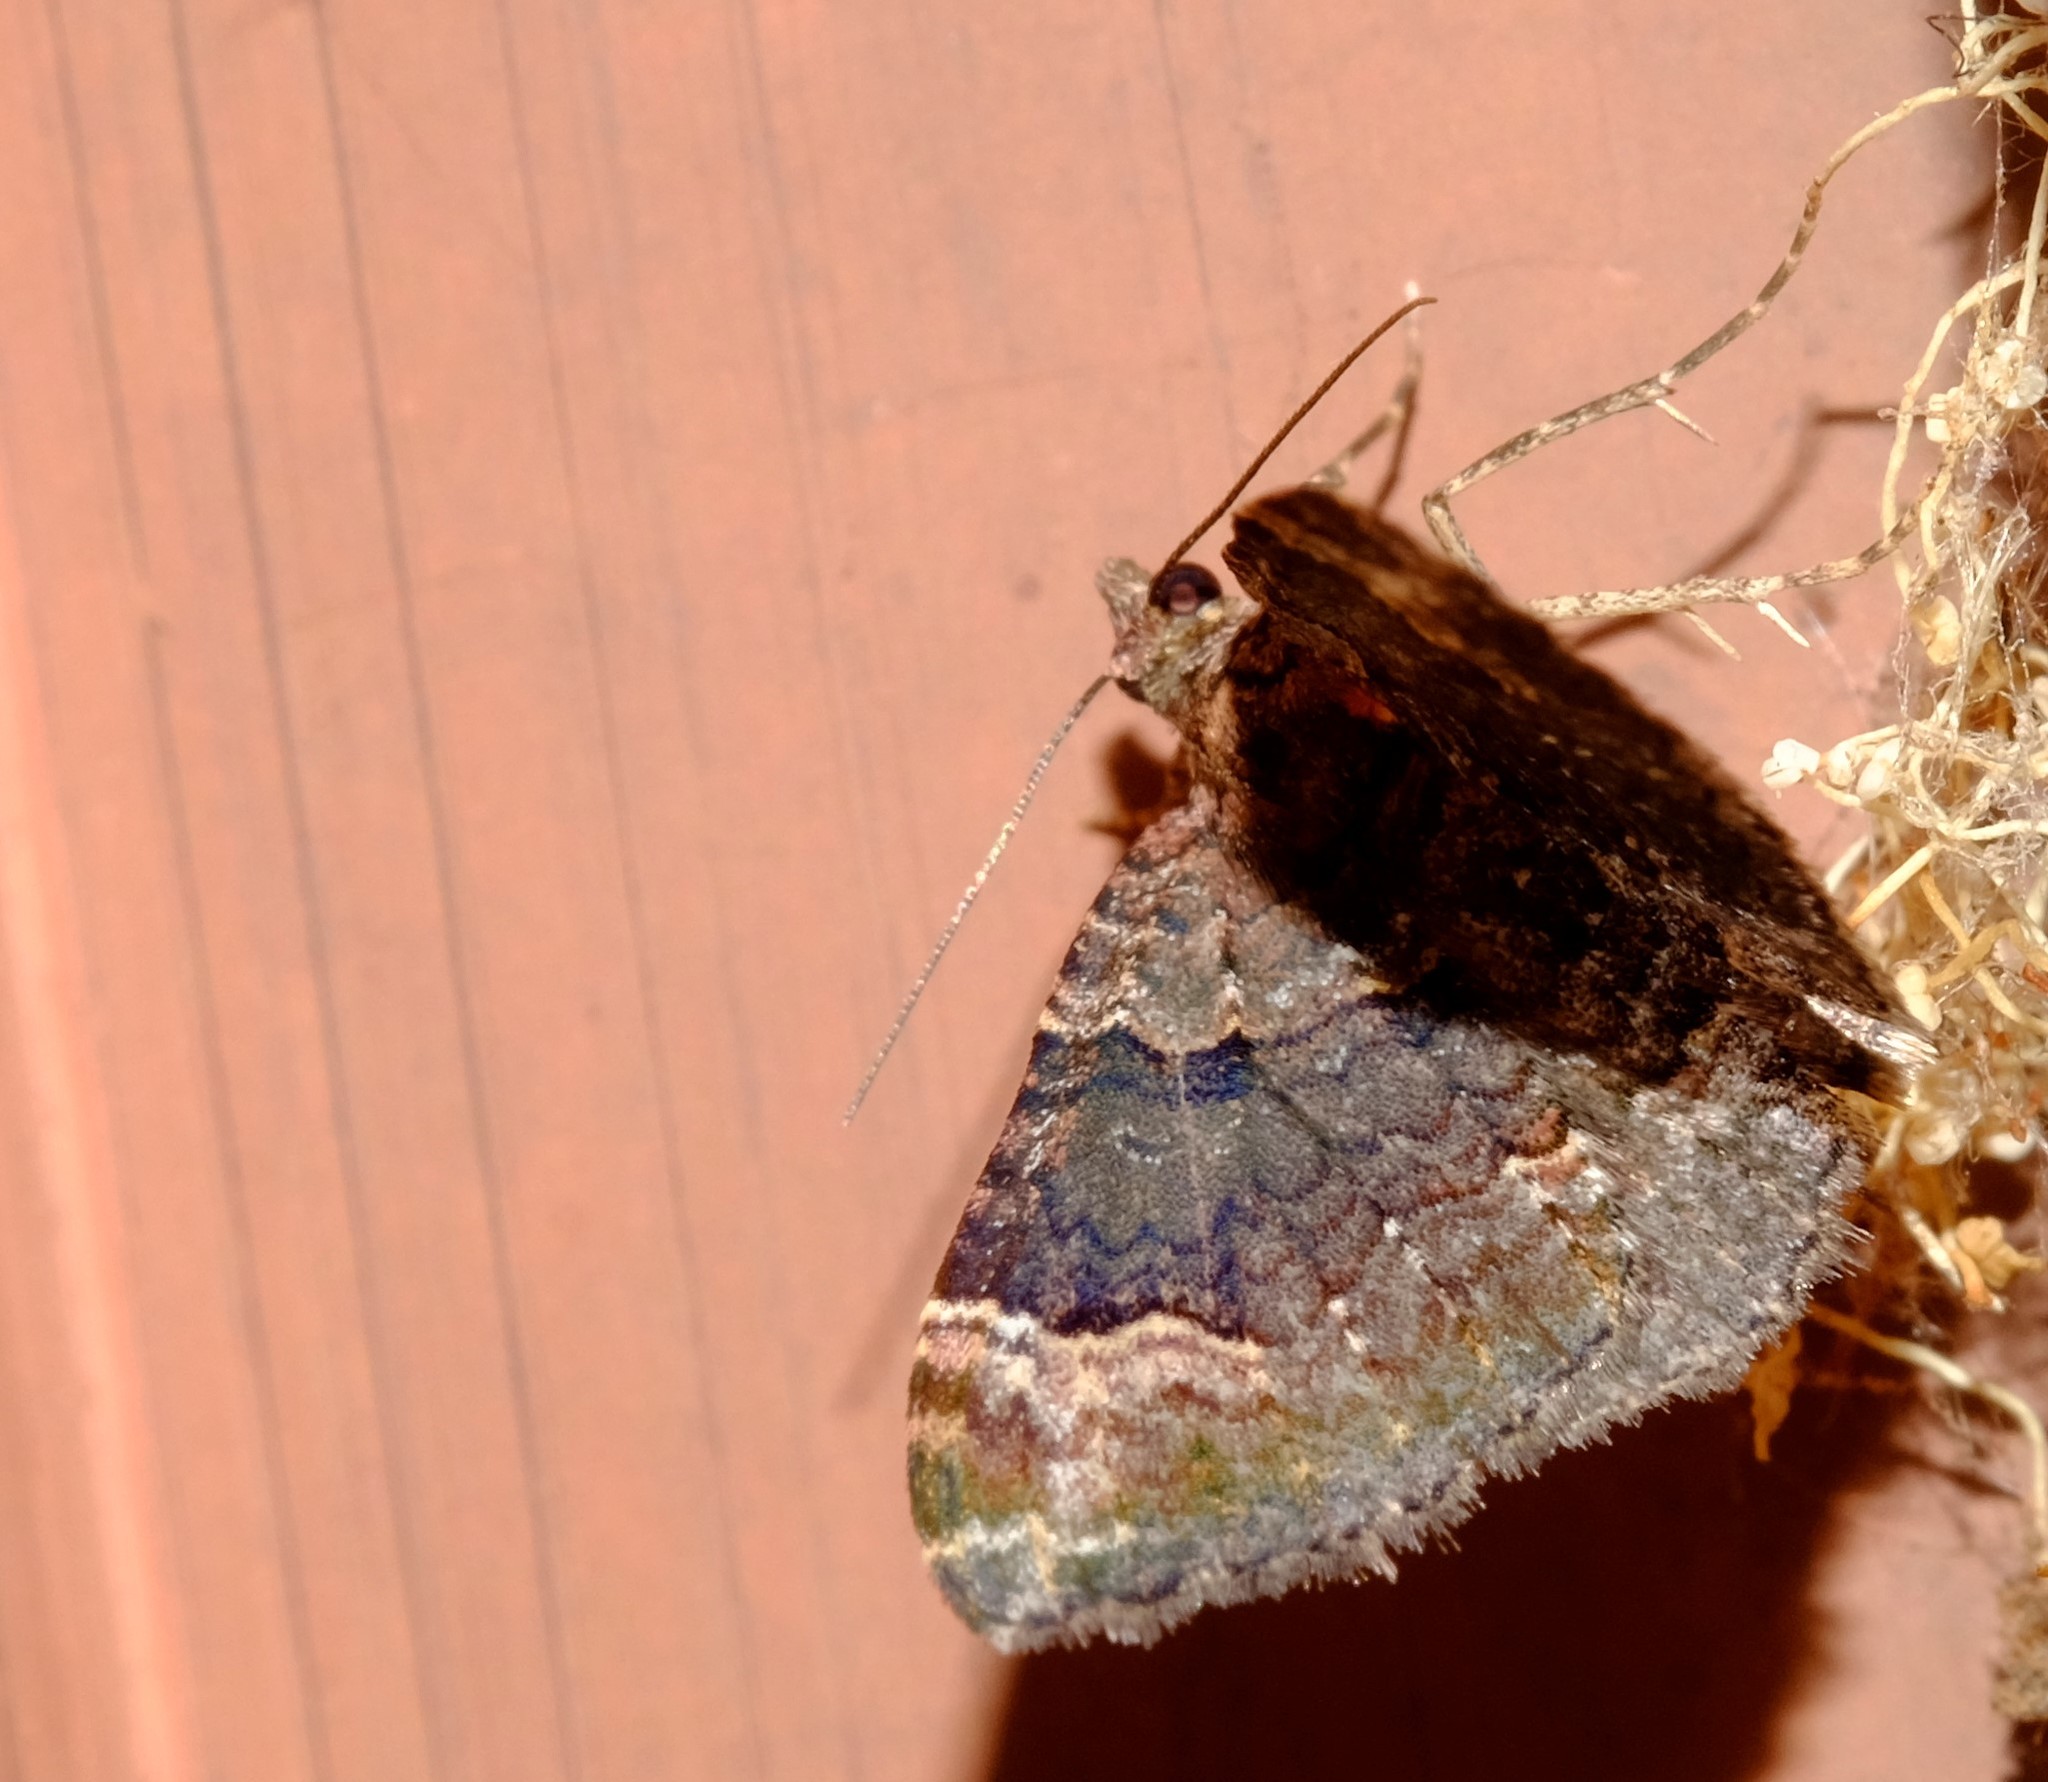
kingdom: Animalia
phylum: Arthropoda
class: Insecta
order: Lepidoptera
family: Geometridae
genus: Epyaxa
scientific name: Epyaxa sodaliata
